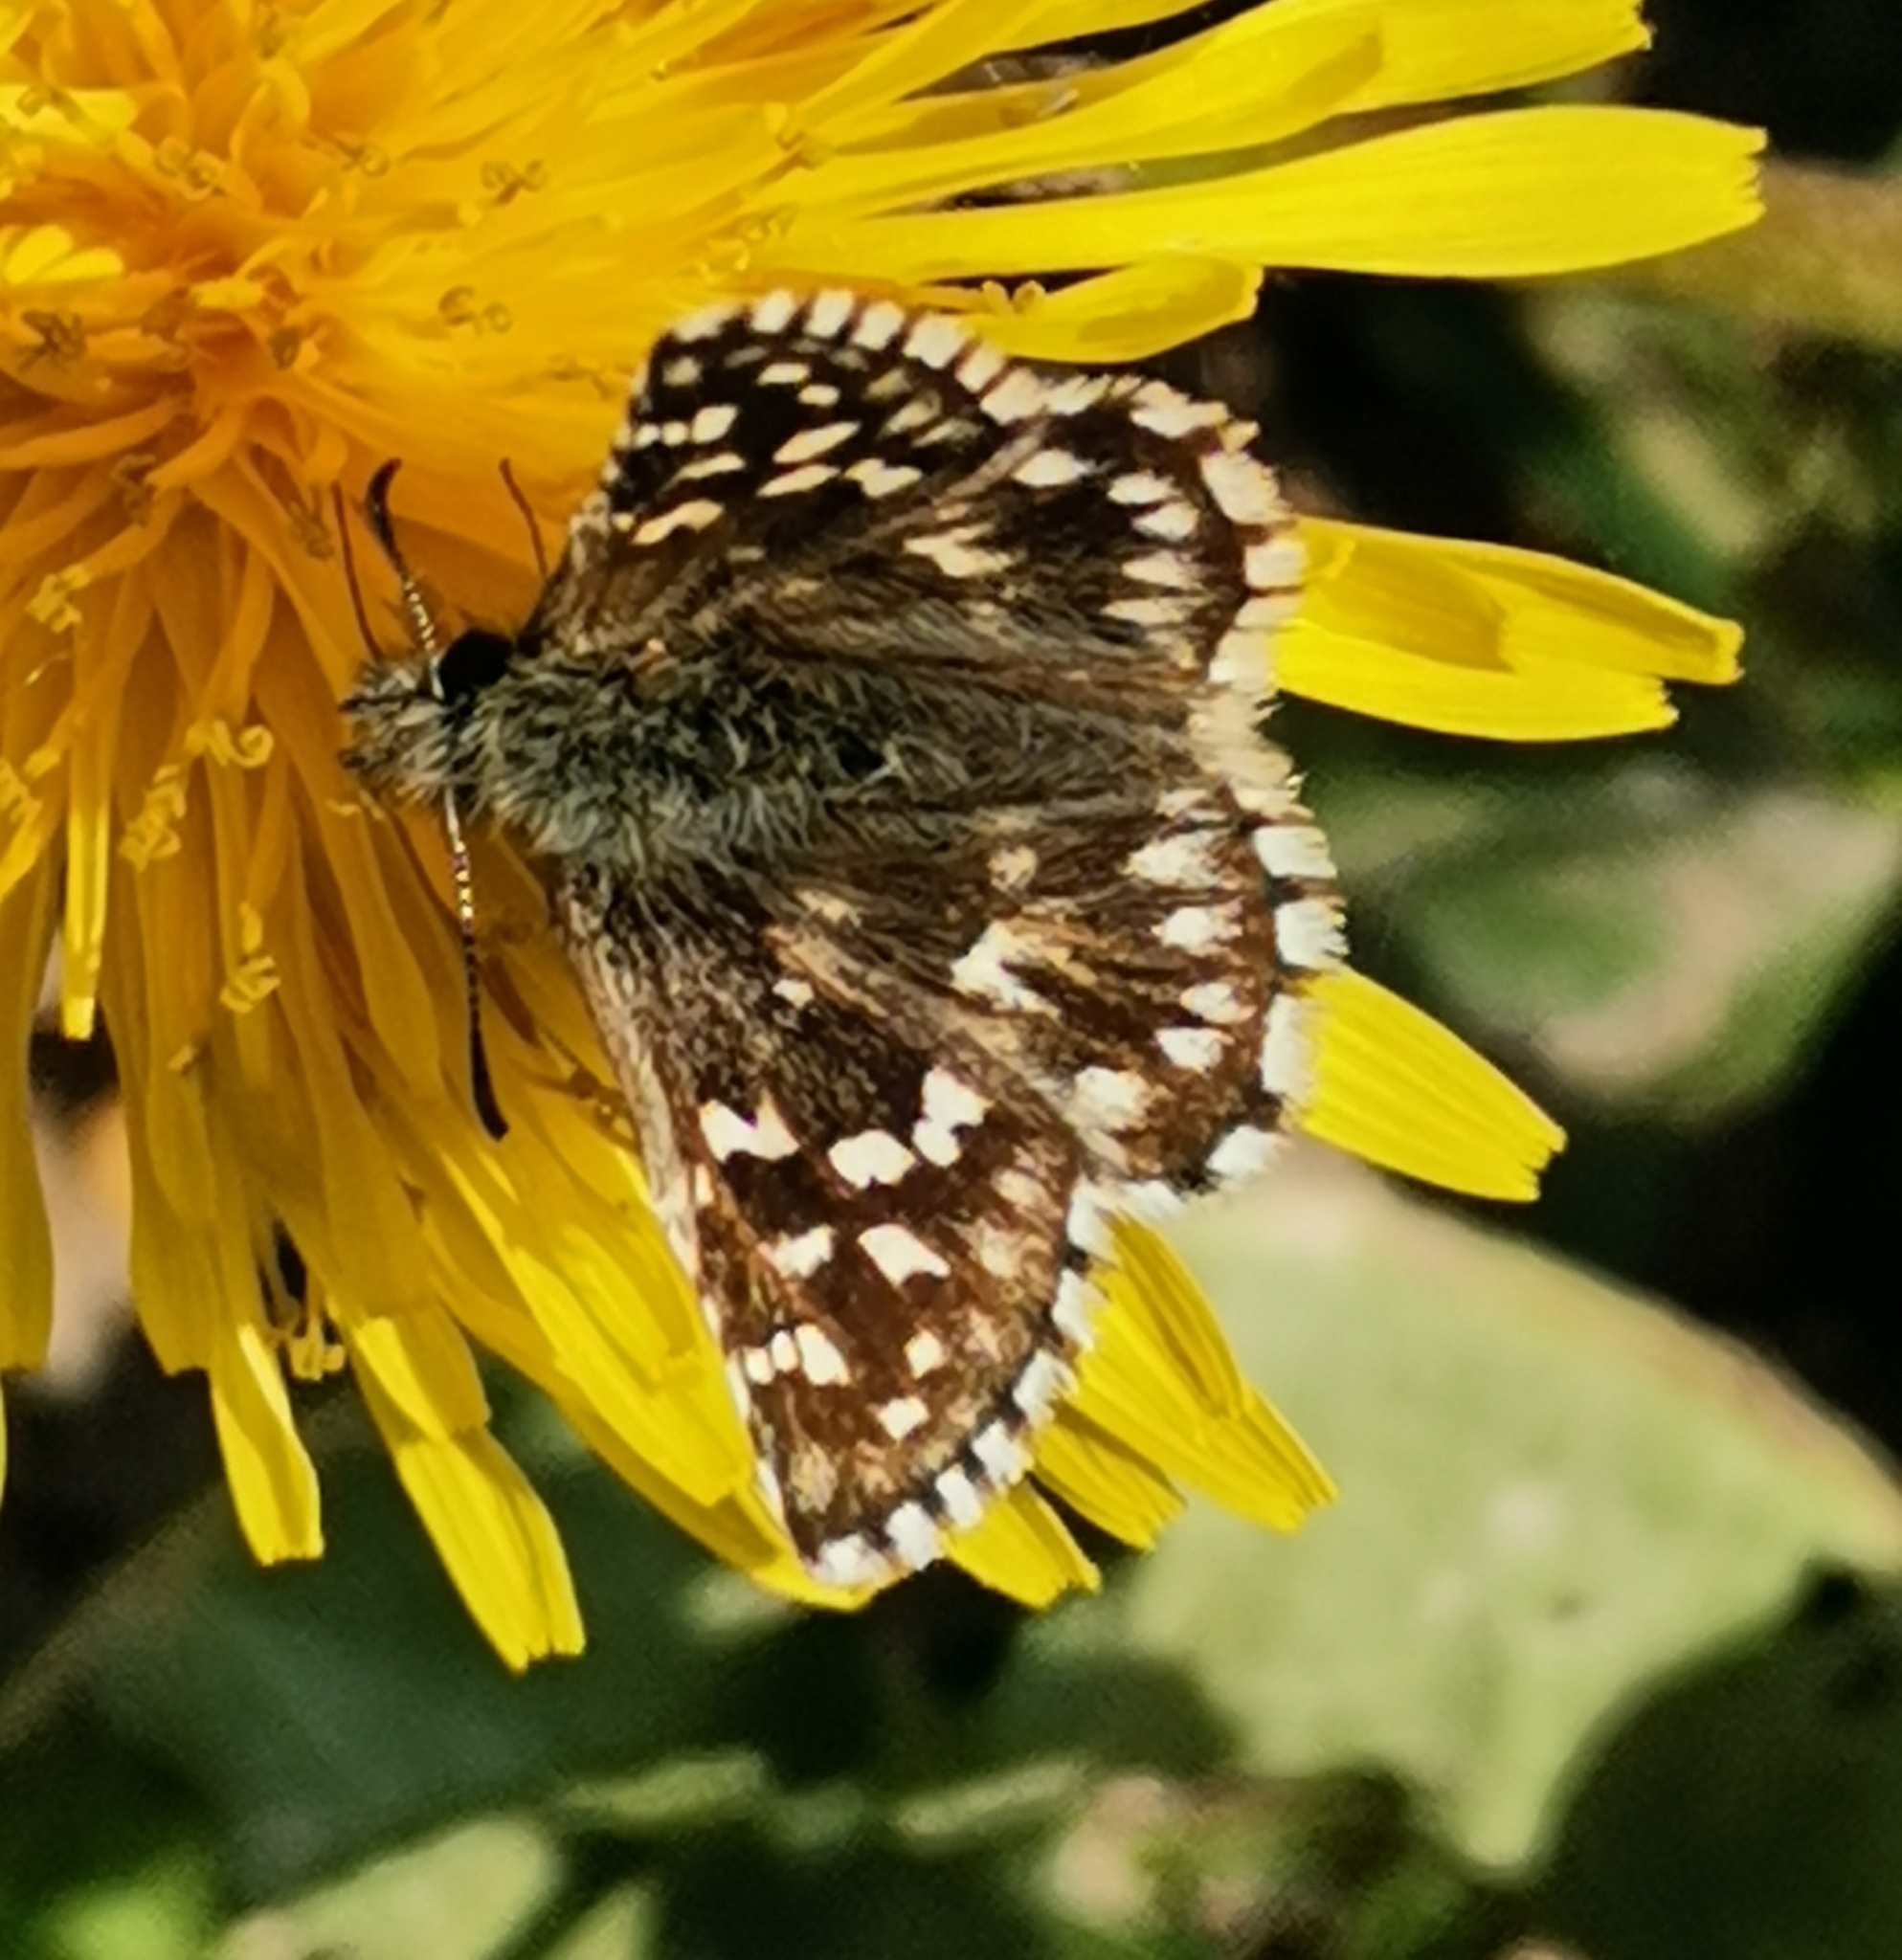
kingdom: Animalia
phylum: Arthropoda
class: Insecta
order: Lepidoptera
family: Hesperiidae
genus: Pyrgus
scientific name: Pyrgus malvae
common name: Grizzled skipper
